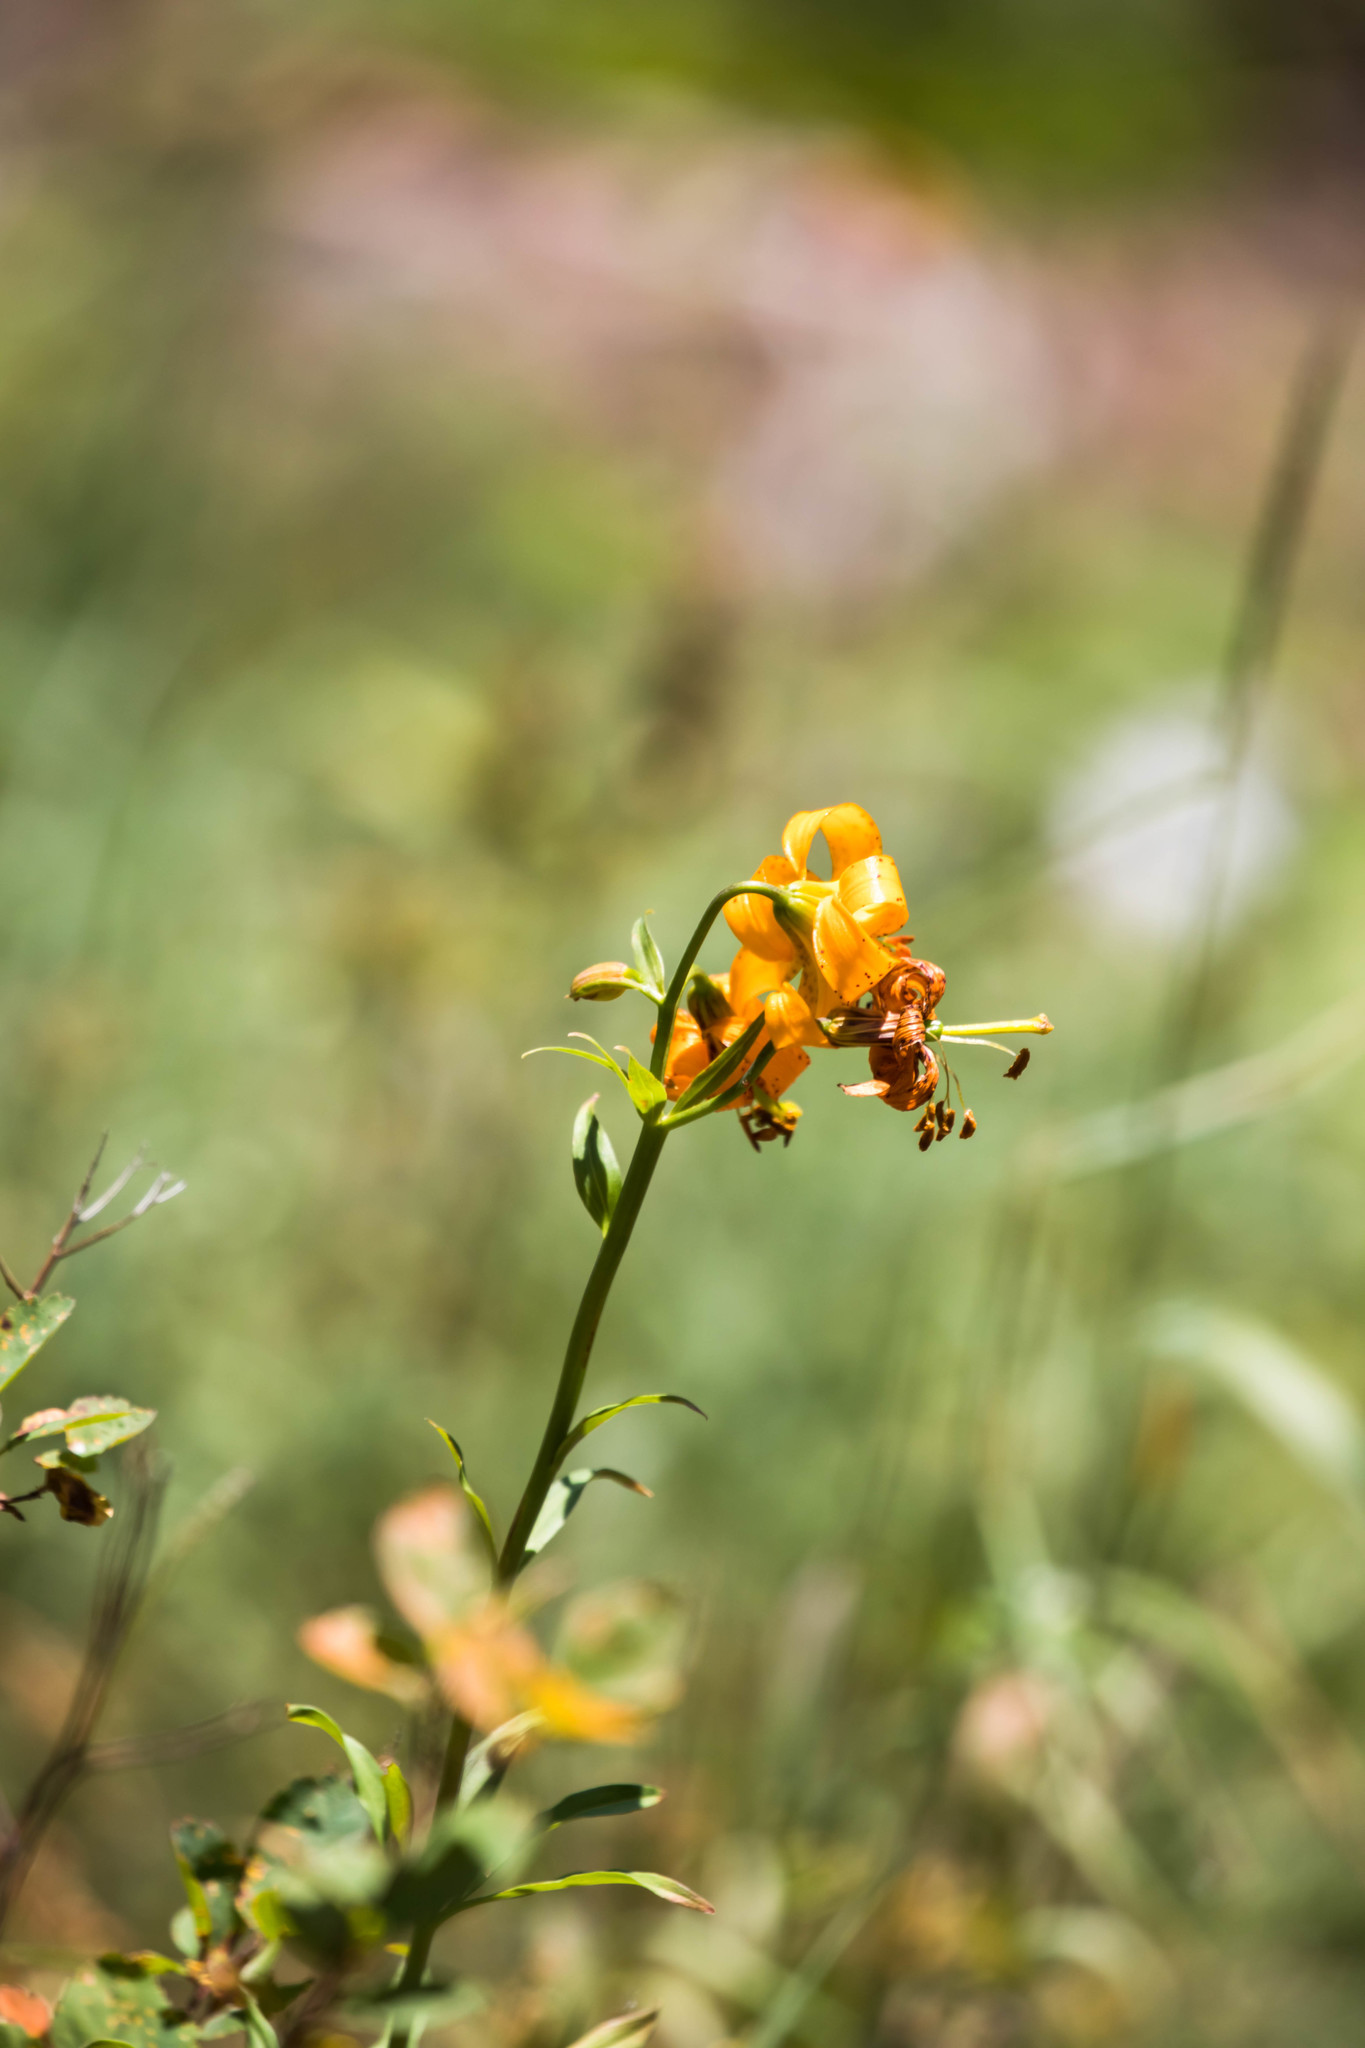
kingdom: Plantae
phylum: Tracheophyta
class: Liliopsida
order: Liliales
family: Liliaceae
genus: Lilium
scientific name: Lilium columbianum
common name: Columbia lily
